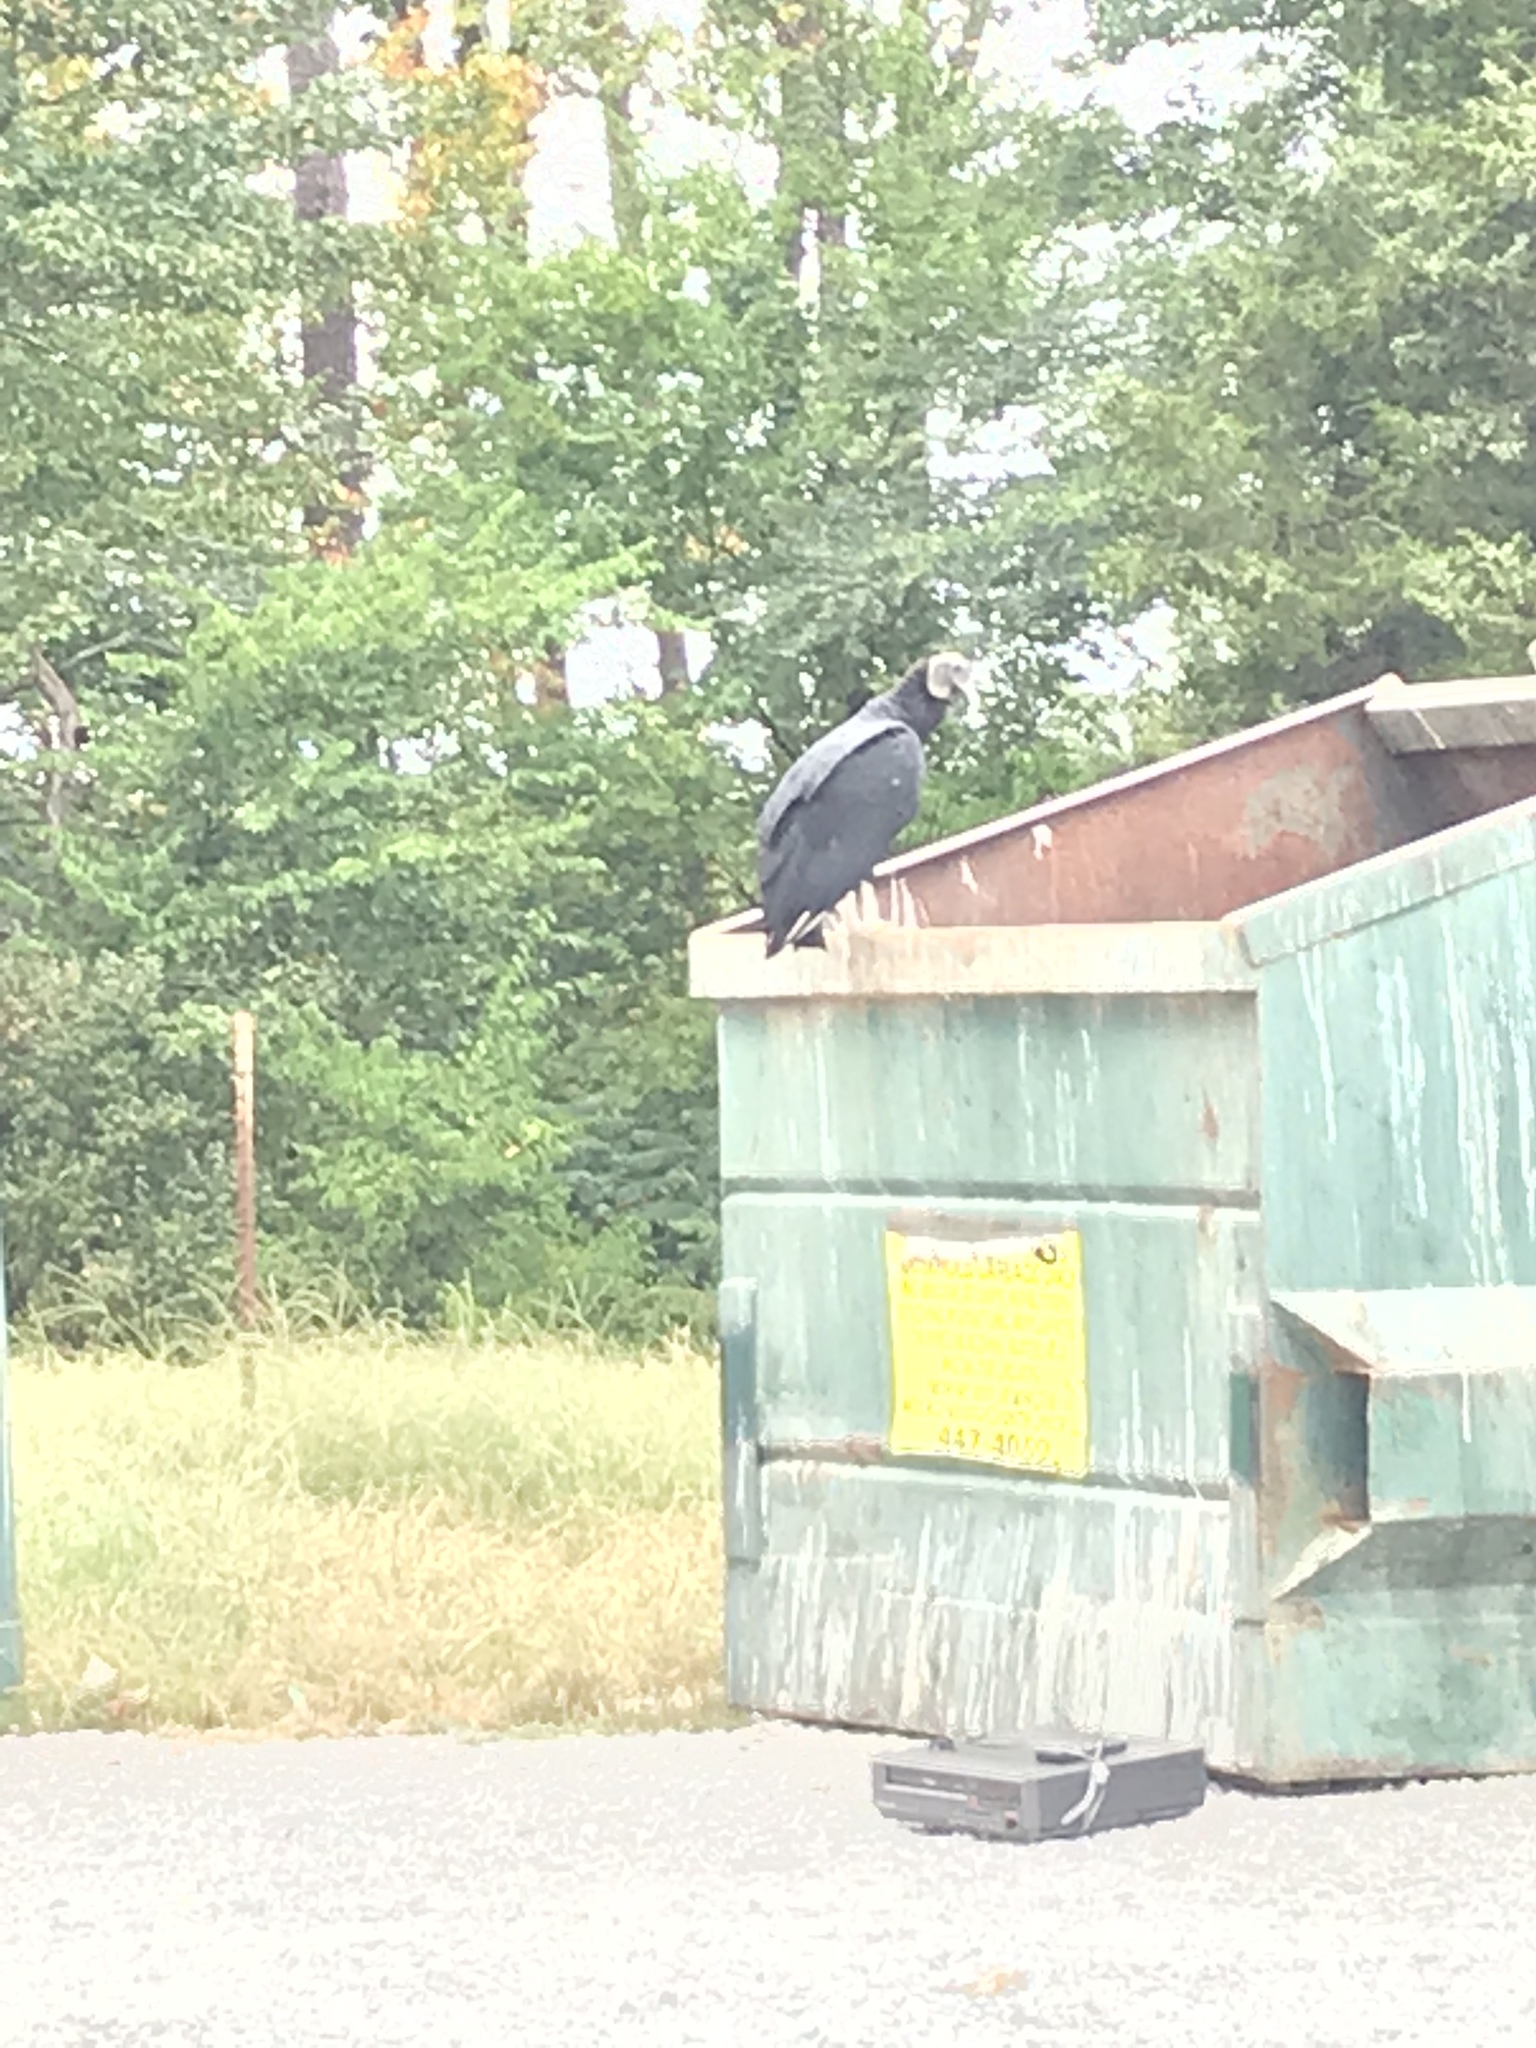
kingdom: Animalia
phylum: Chordata
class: Aves
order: Accipitriformes
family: Cathartidae
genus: Coragyps
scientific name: Coragyps atratus
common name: Black vulture
